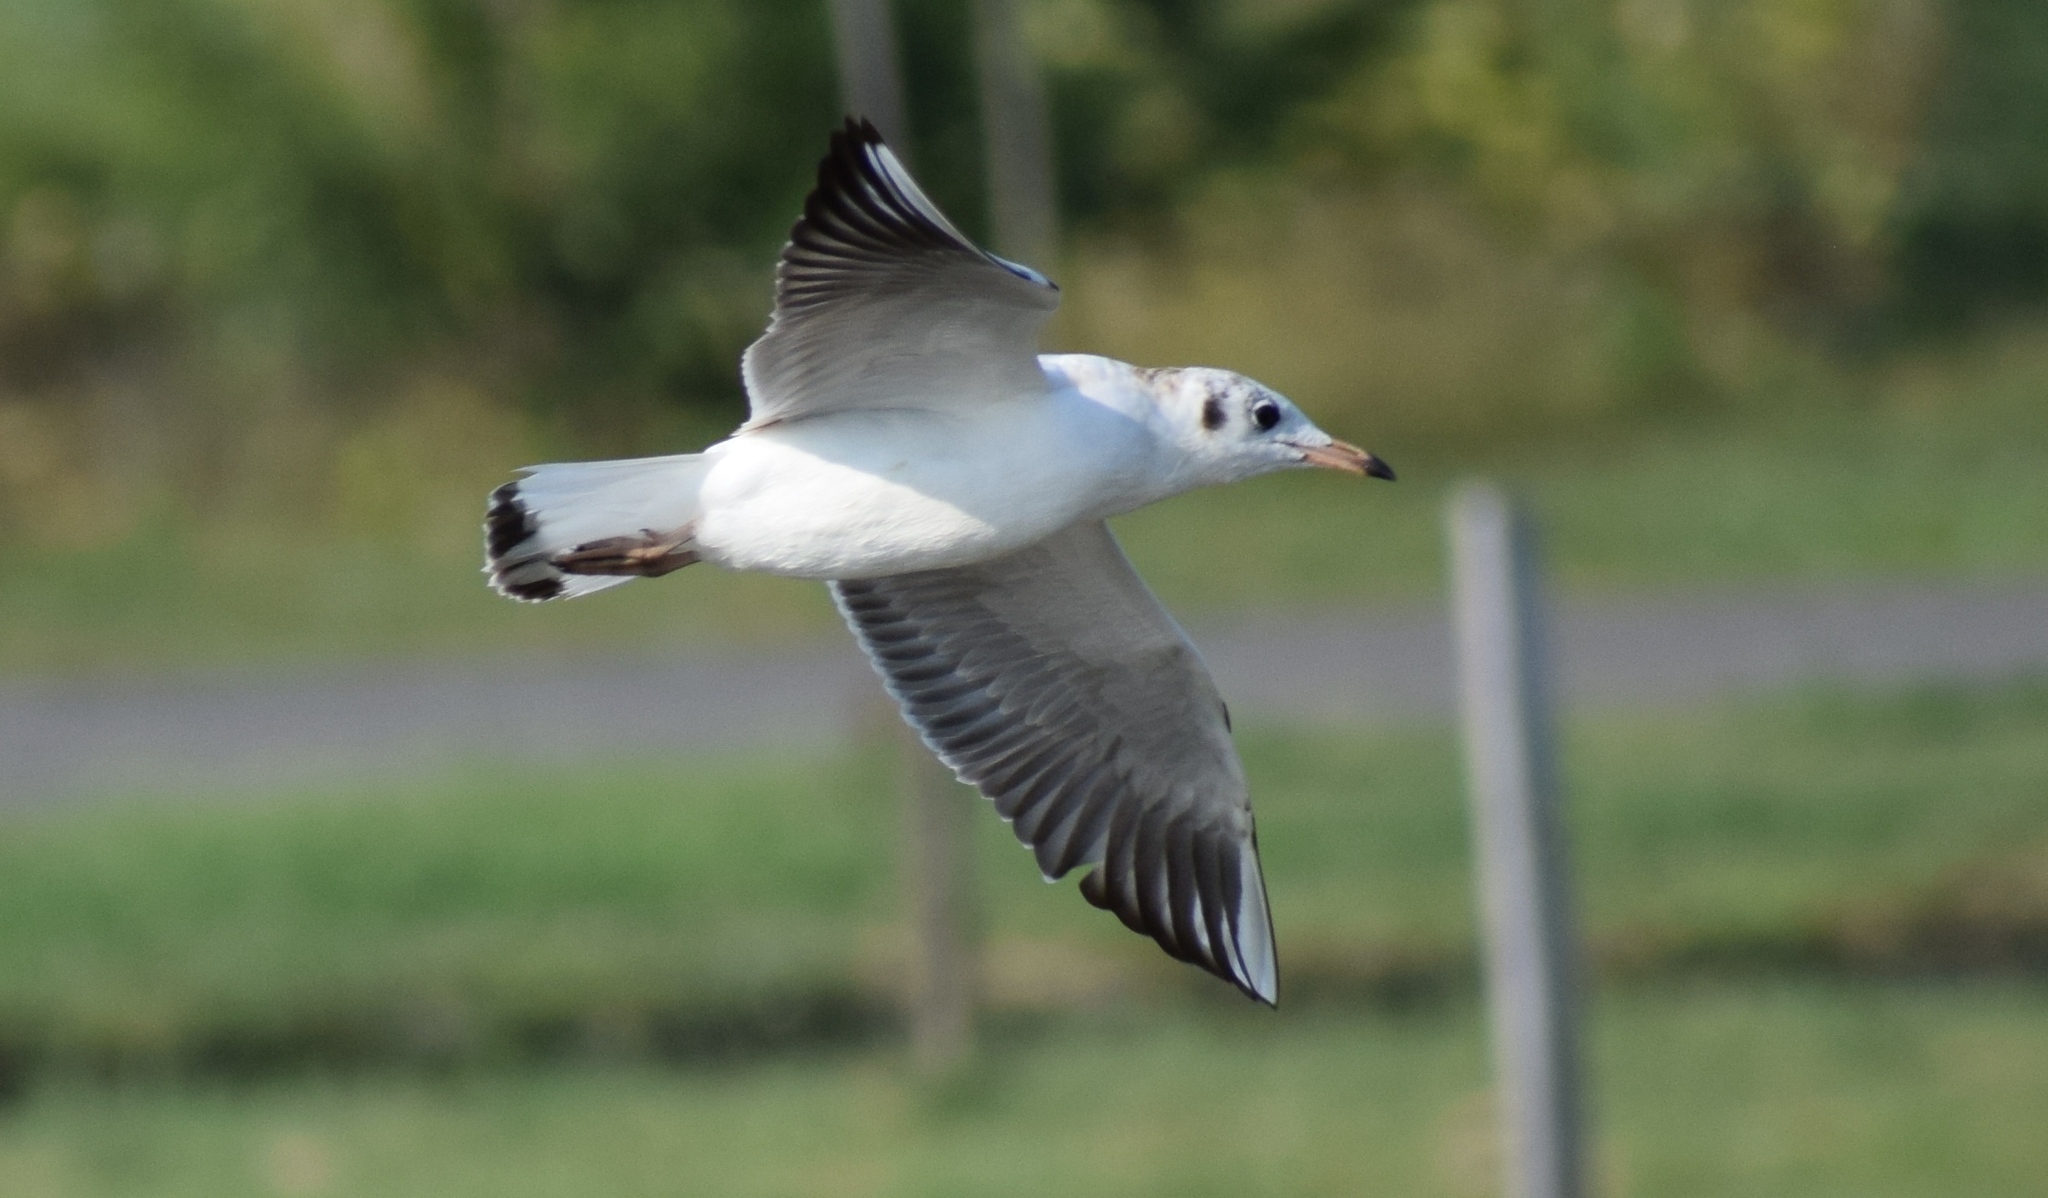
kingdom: Animalia
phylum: Chordata
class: Aves
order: Charadriiformes
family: Laridae
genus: Chroicocephalus
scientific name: Chroicocephalus ridibundus
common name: Black-headed gull
